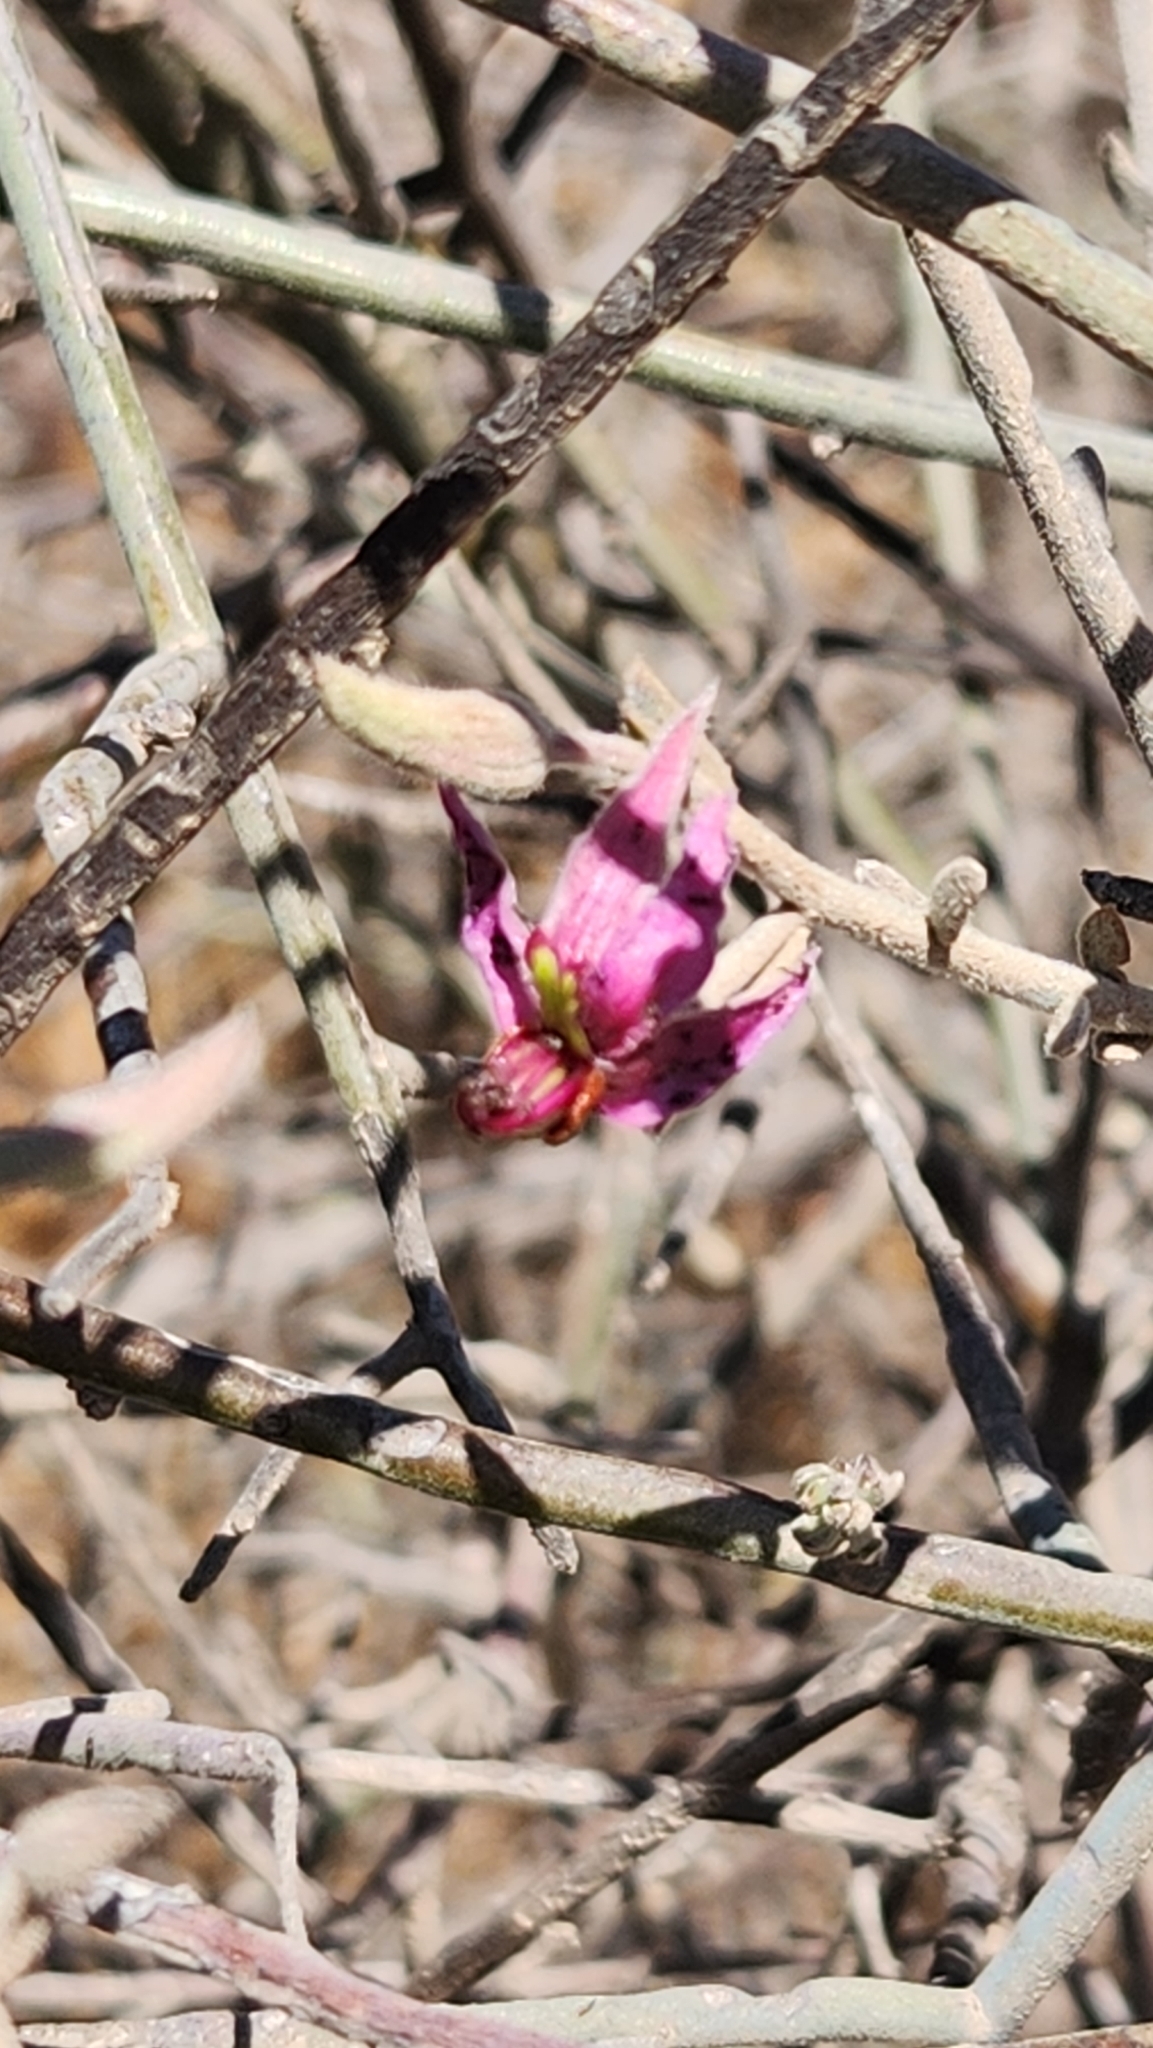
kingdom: Plantae
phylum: Tracheophyta
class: Magnoliopsida
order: Zygophyllales
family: Krameriaceae
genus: Krameria
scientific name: Krameria bicolor
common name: White ratany
